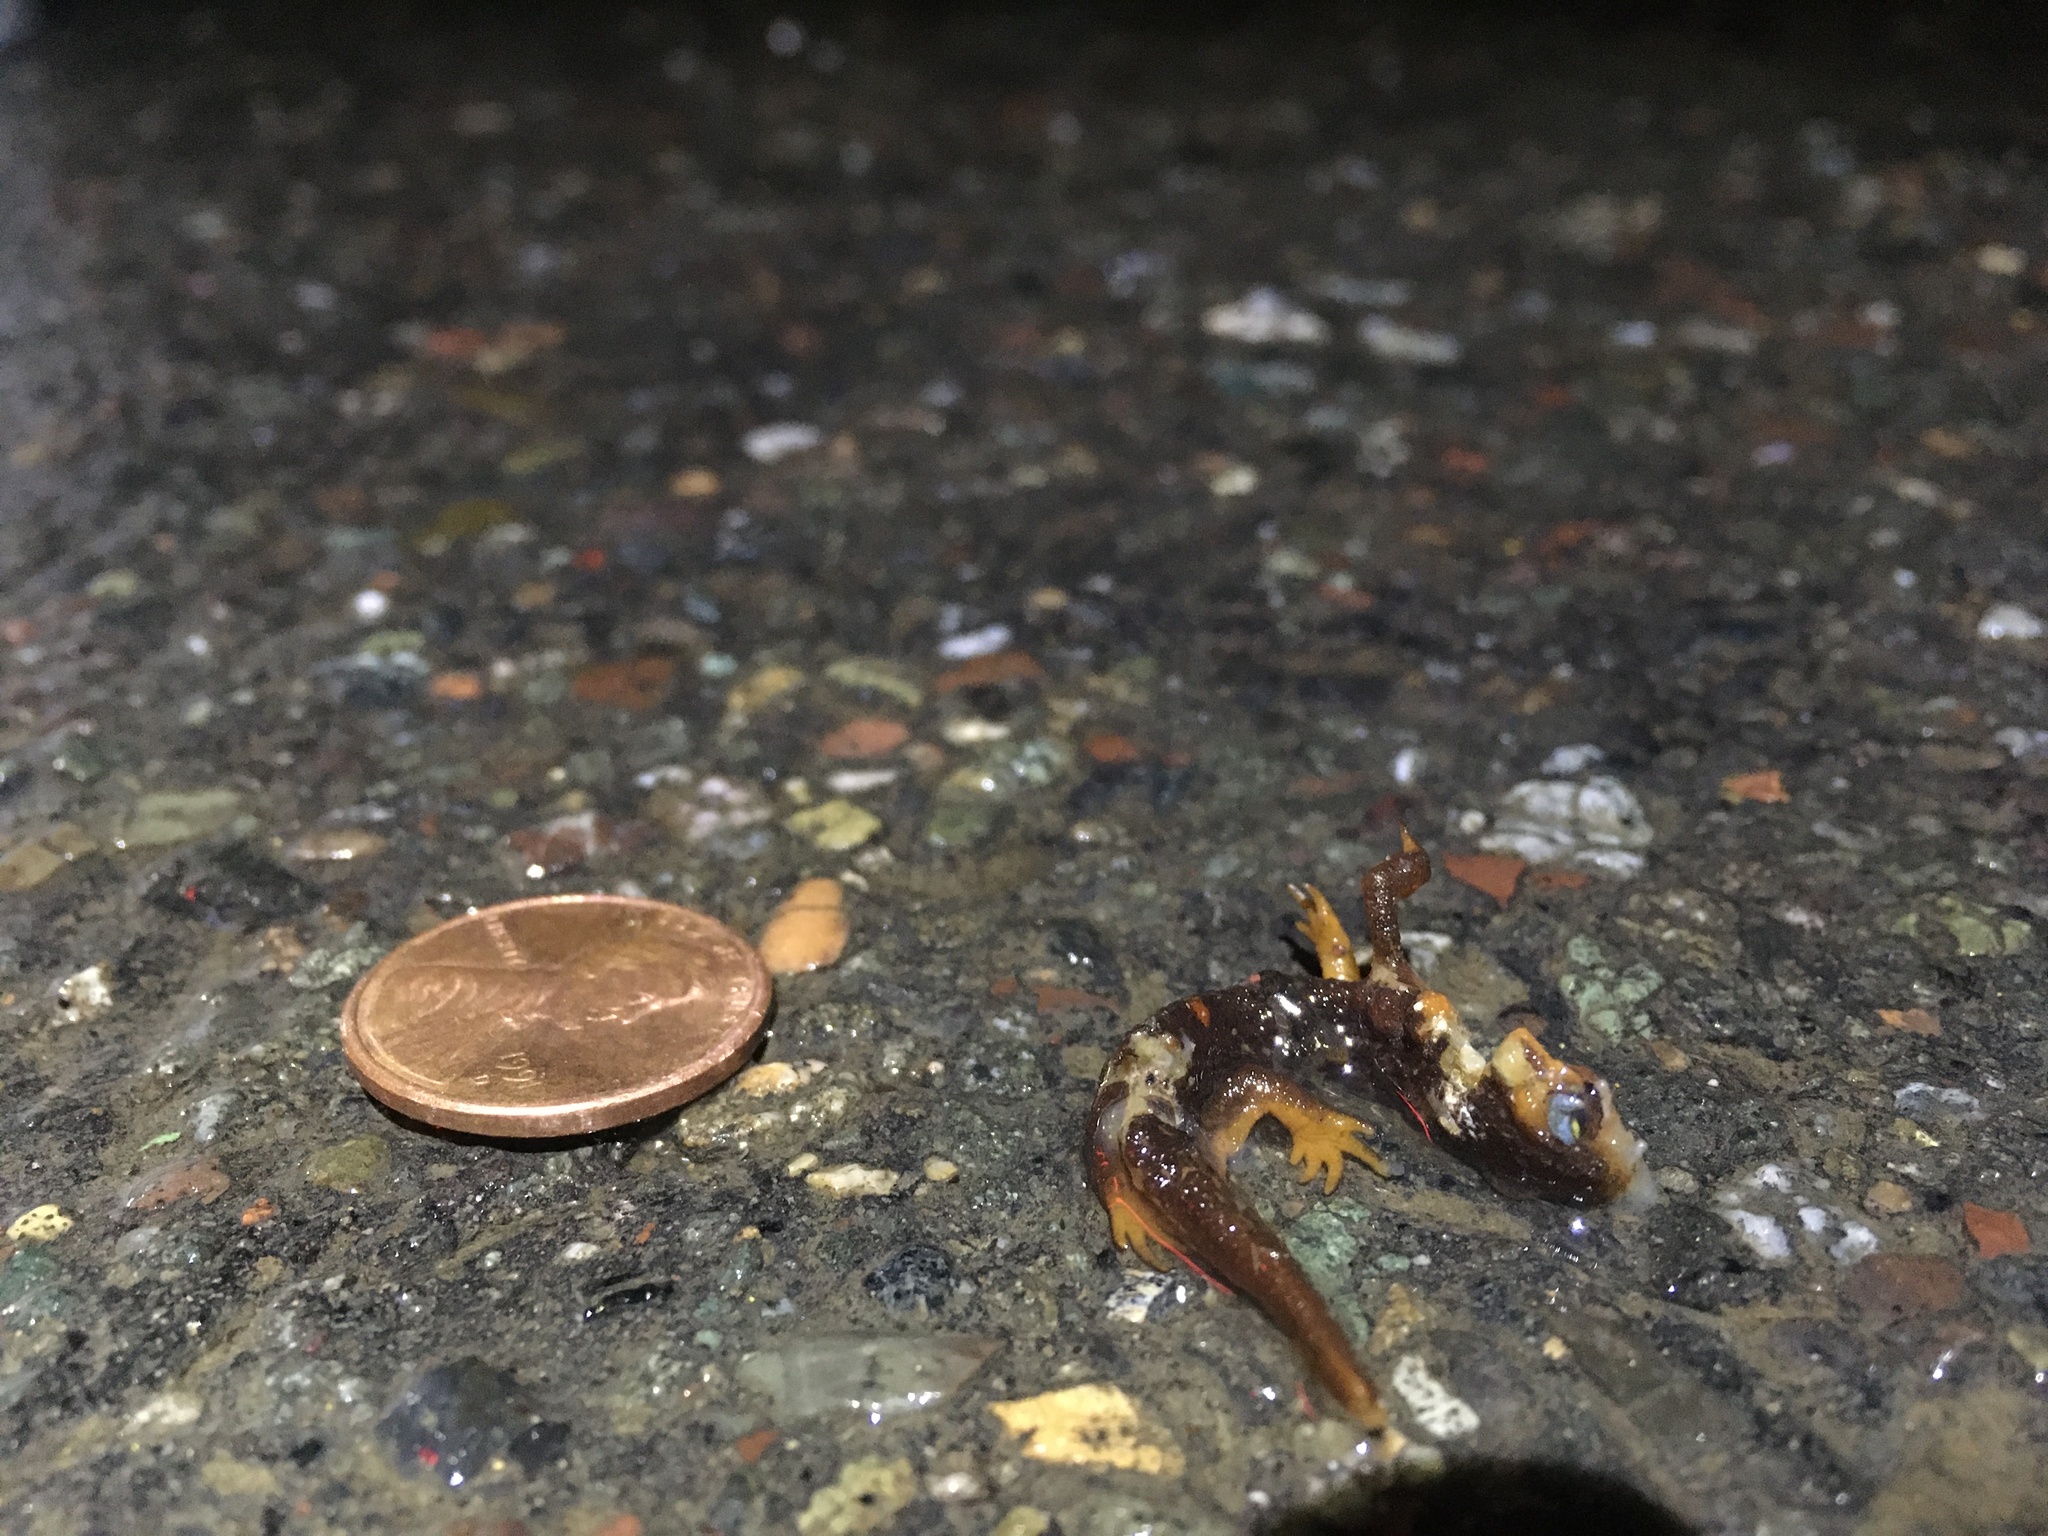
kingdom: Animalia
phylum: Chordata
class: Amphibia
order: Caudata
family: Salamandridae
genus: Taricha
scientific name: Taricha
